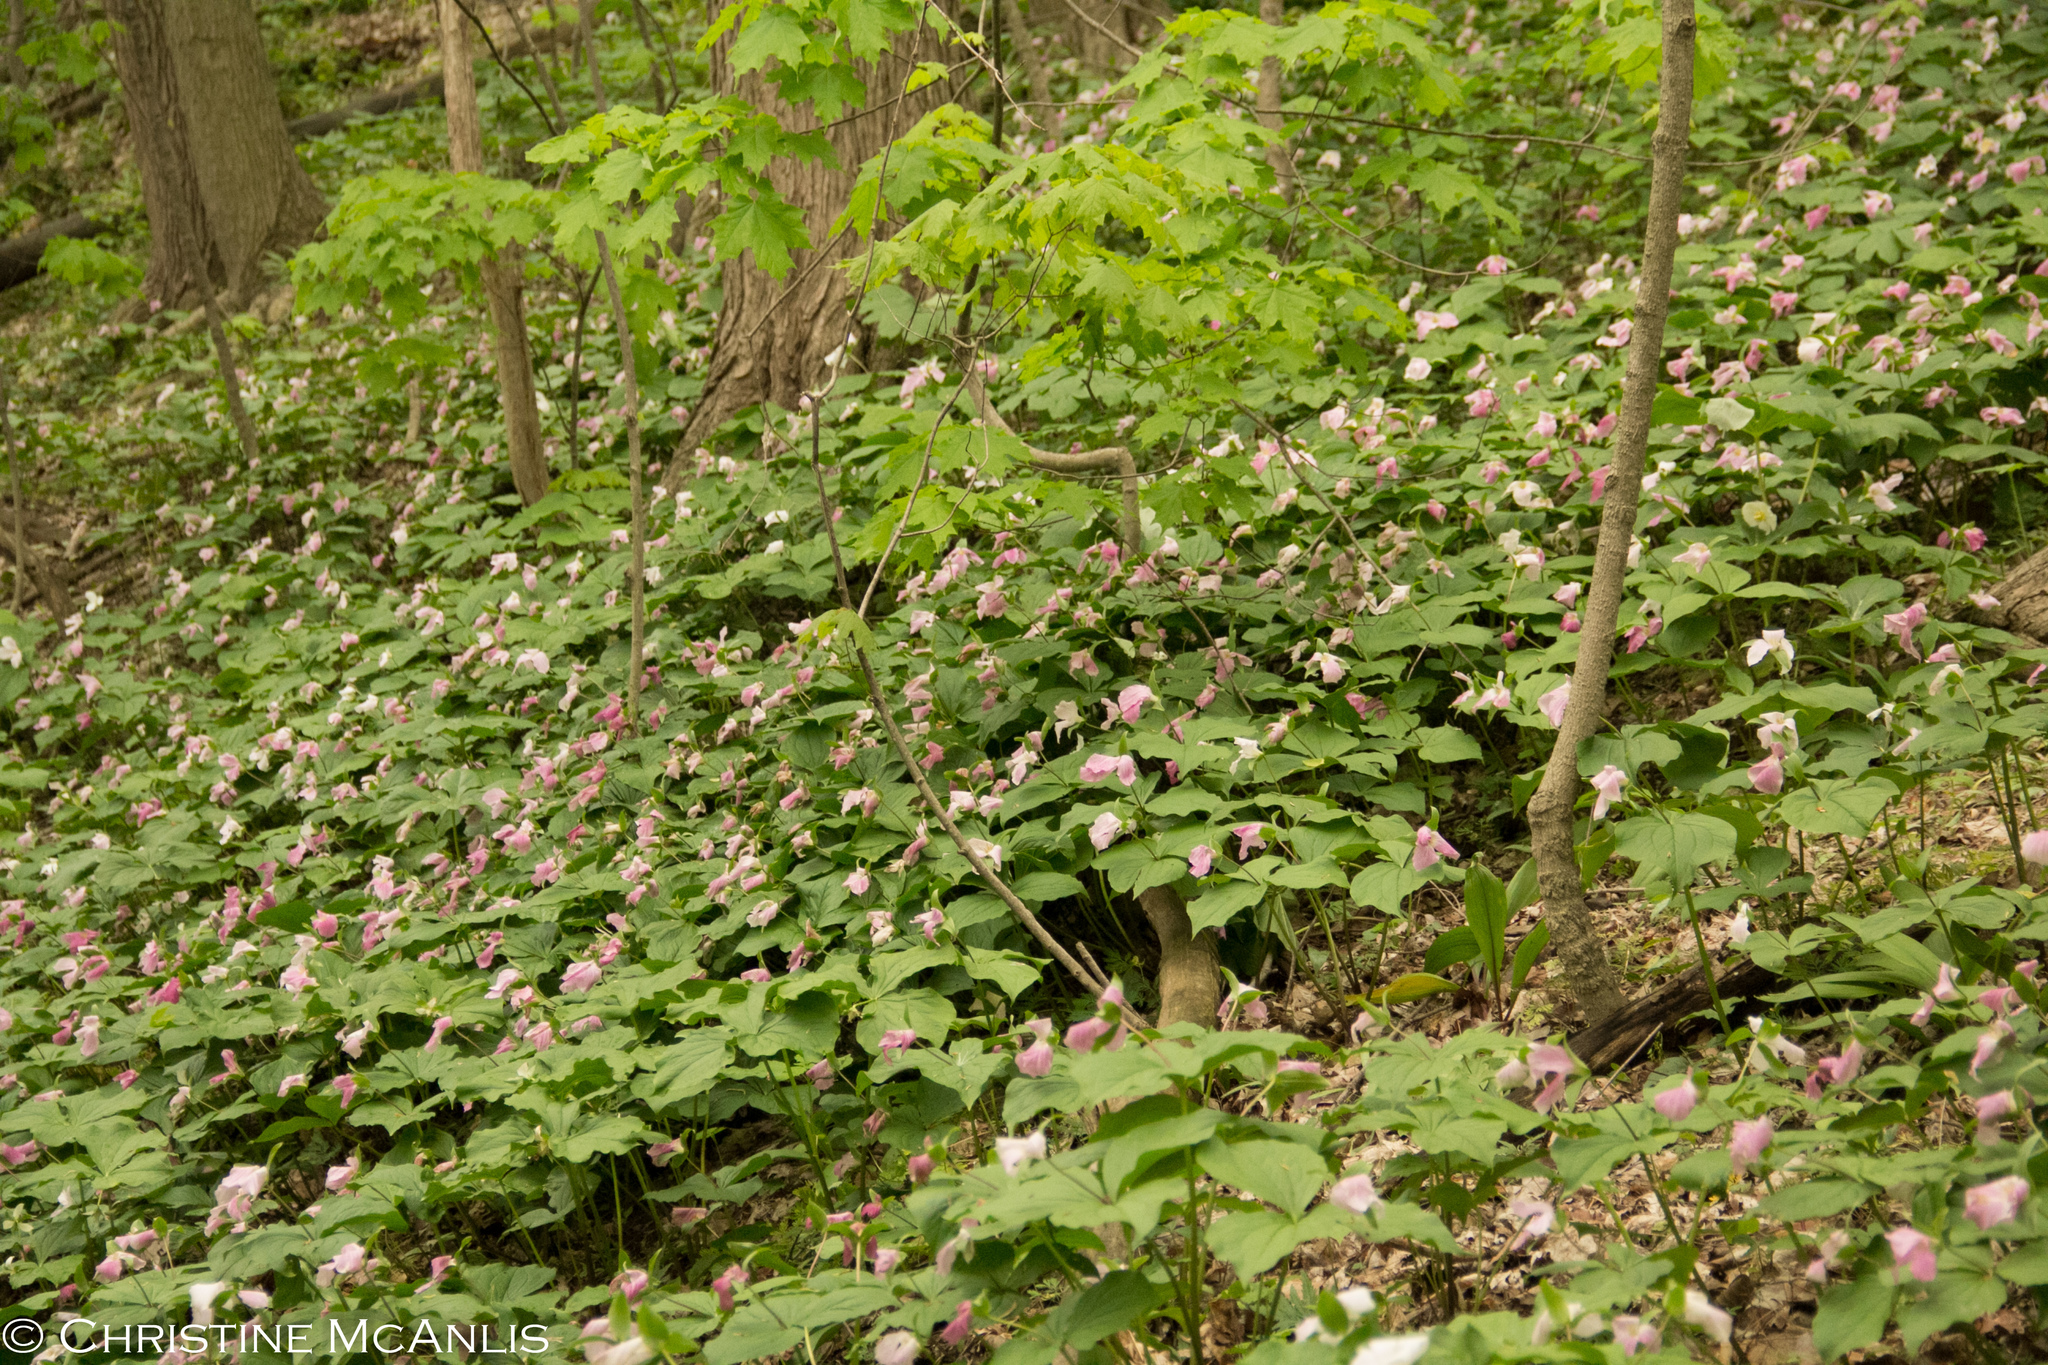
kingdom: Plantae
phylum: Tracheophyta
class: Liliopsida
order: Liliales
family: Melanthiaceae
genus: Trillium
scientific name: Trillium grandiflorum
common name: Great white trillium
